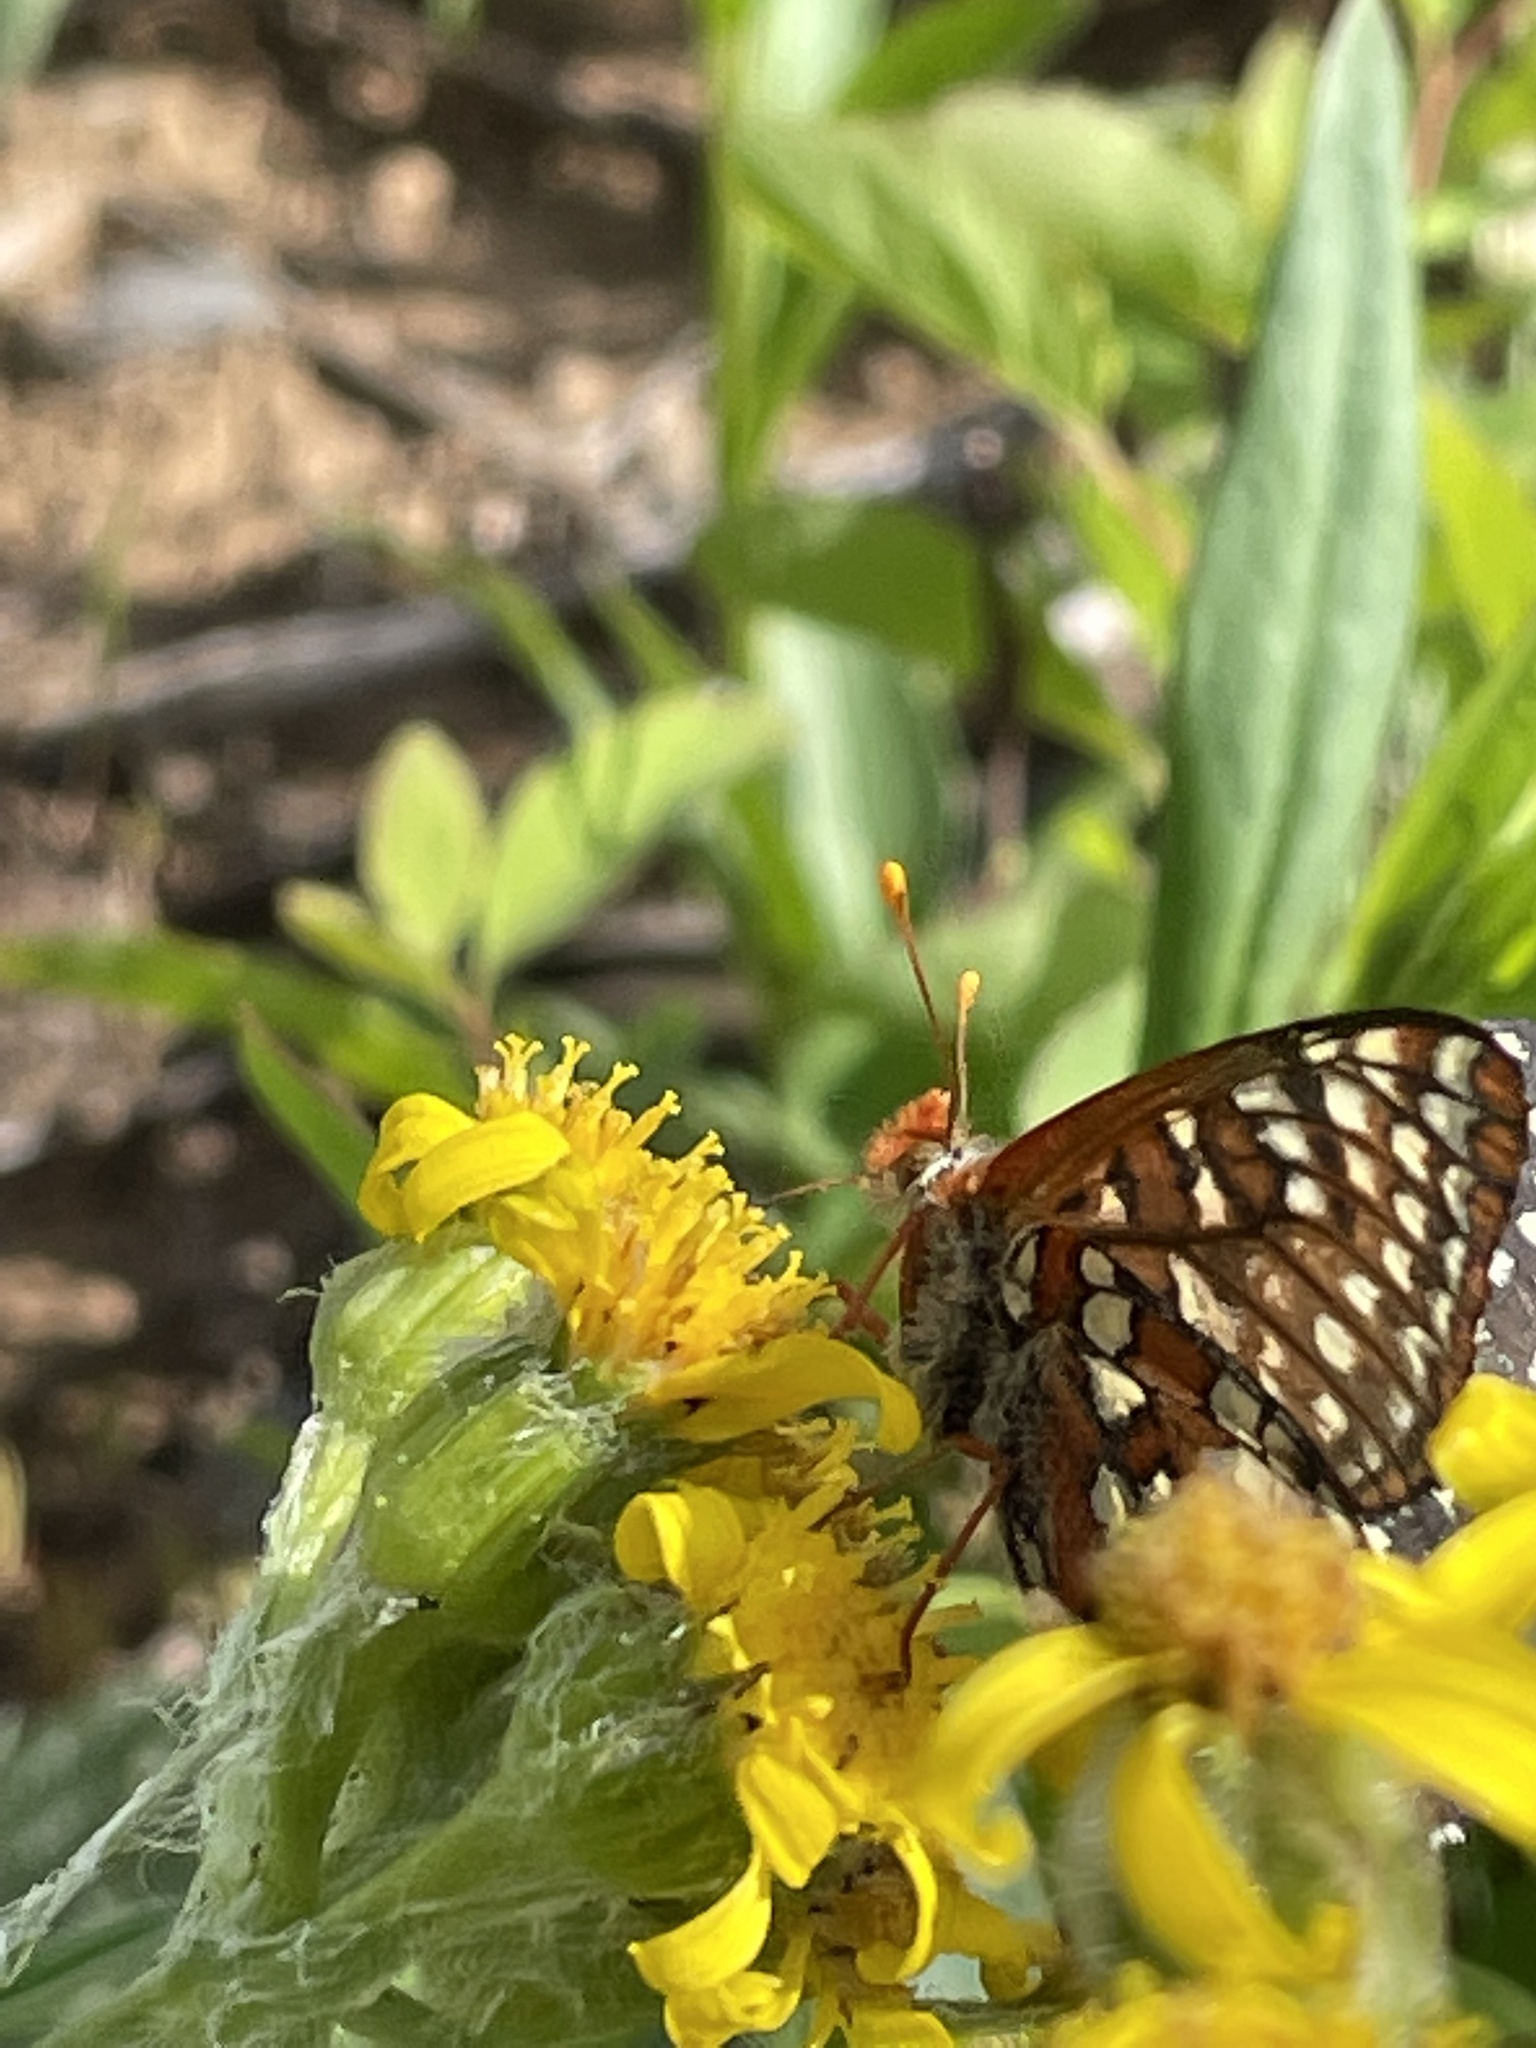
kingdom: Animalia
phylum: Arthropoda
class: Insecta
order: Lepidoptera
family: Nymphalidae
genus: Occidryas
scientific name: Occidryas colon
